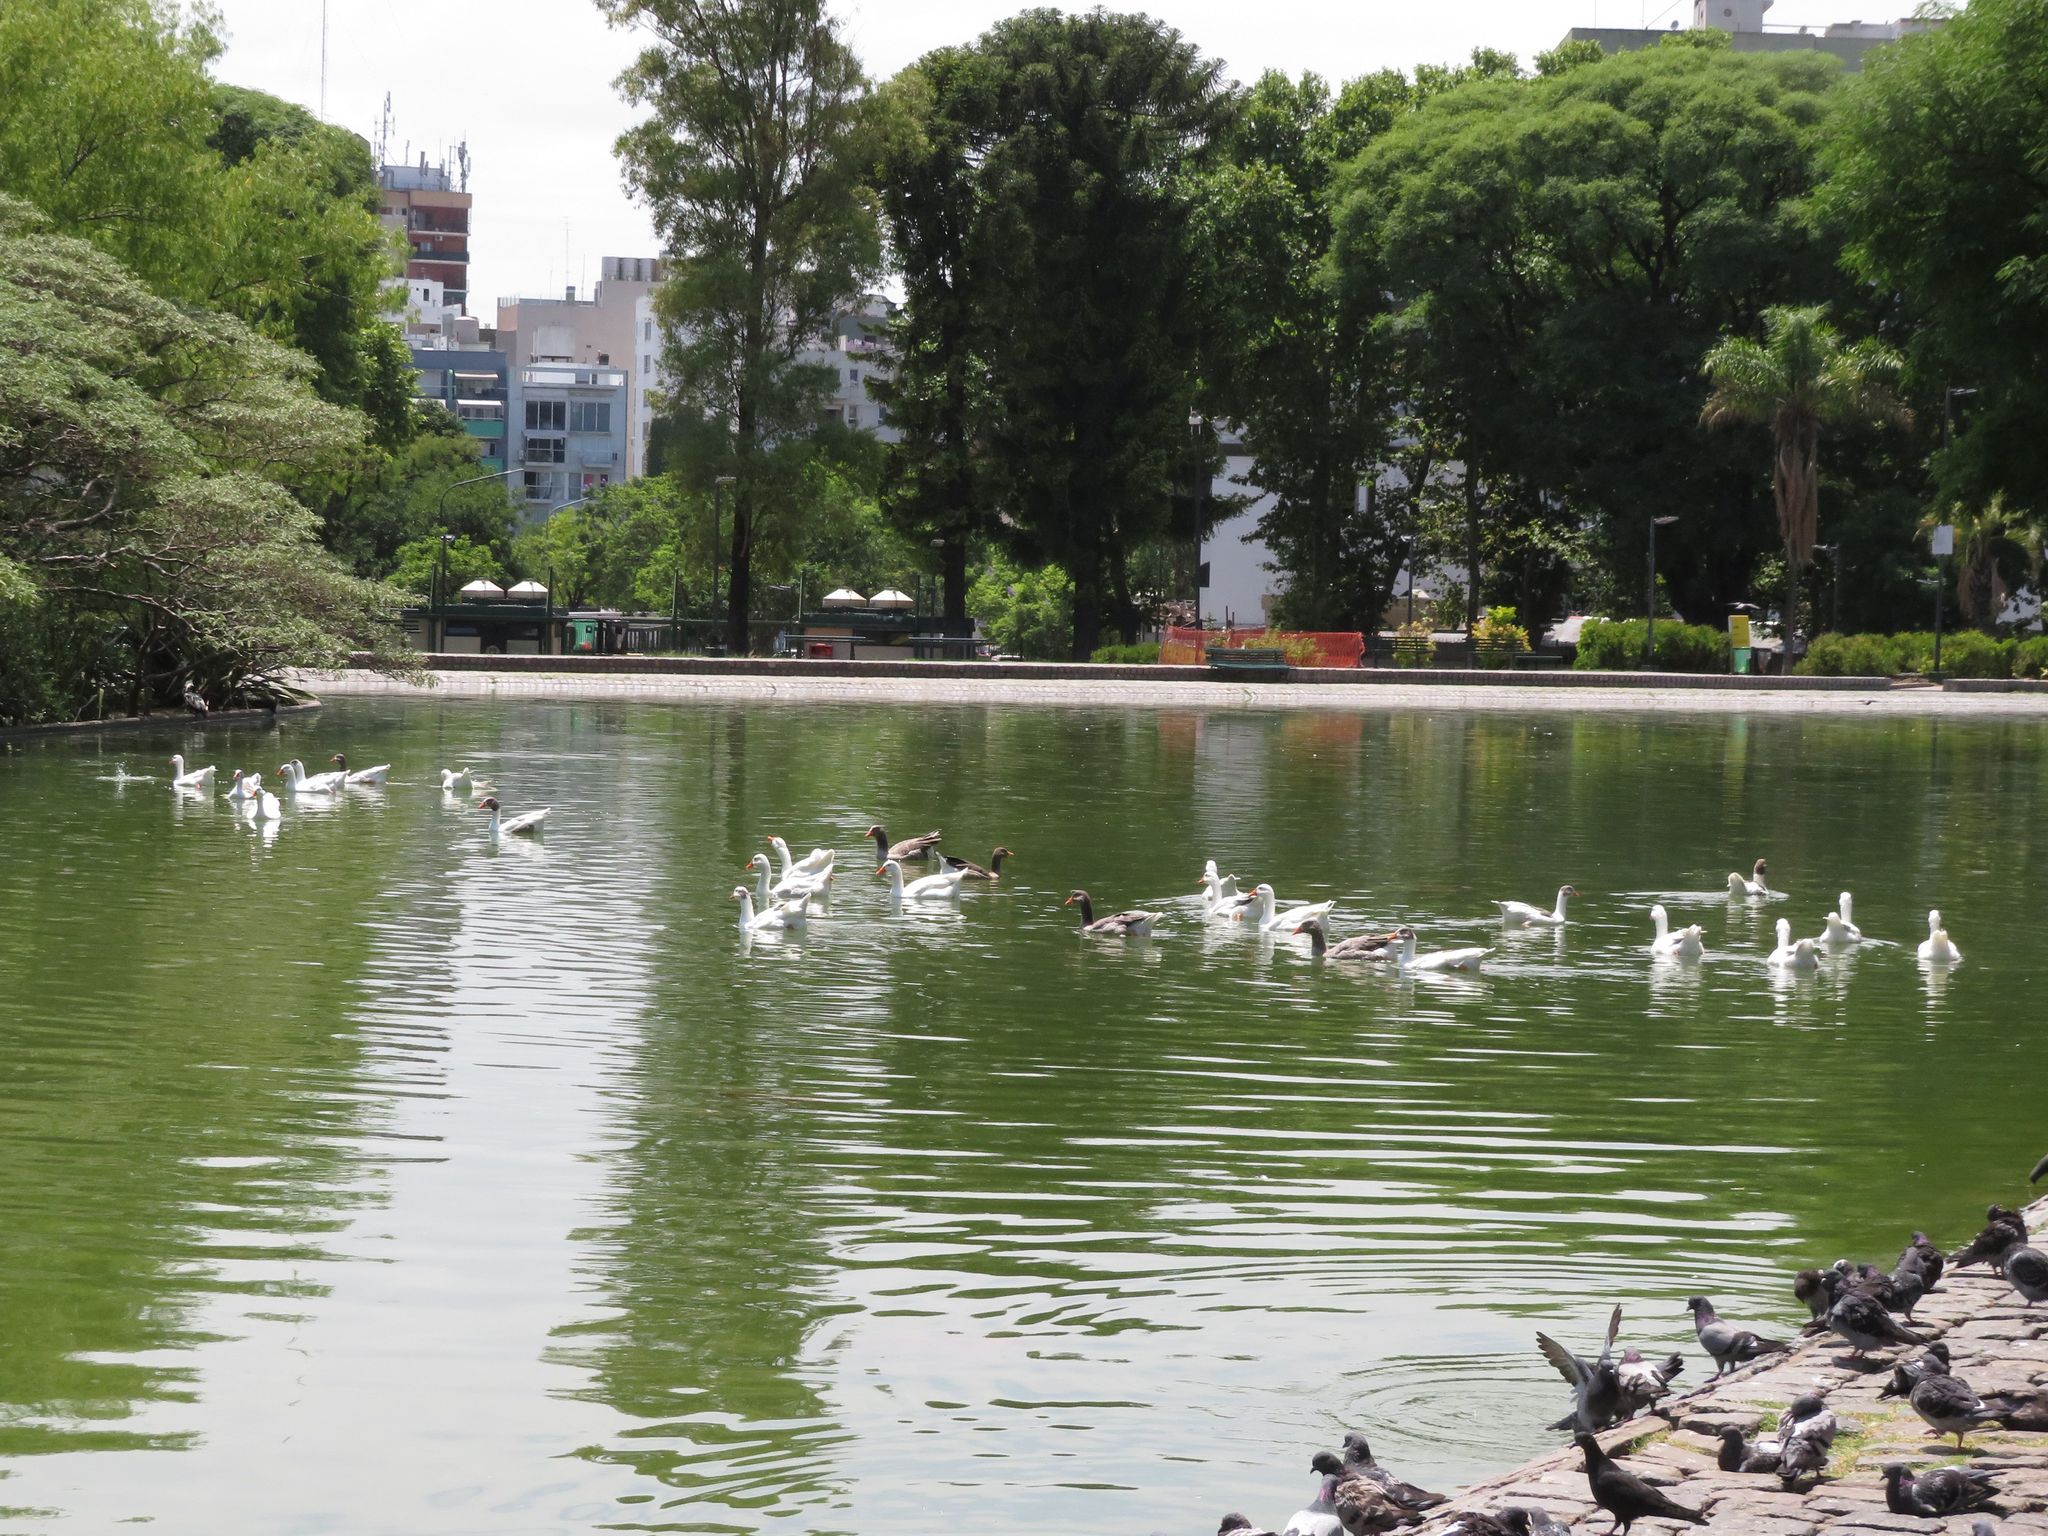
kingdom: Animalia
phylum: Chordata
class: Aves
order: Anseriformes
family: Anatidae
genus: Anser
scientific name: Anser anser
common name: Greylag goose
